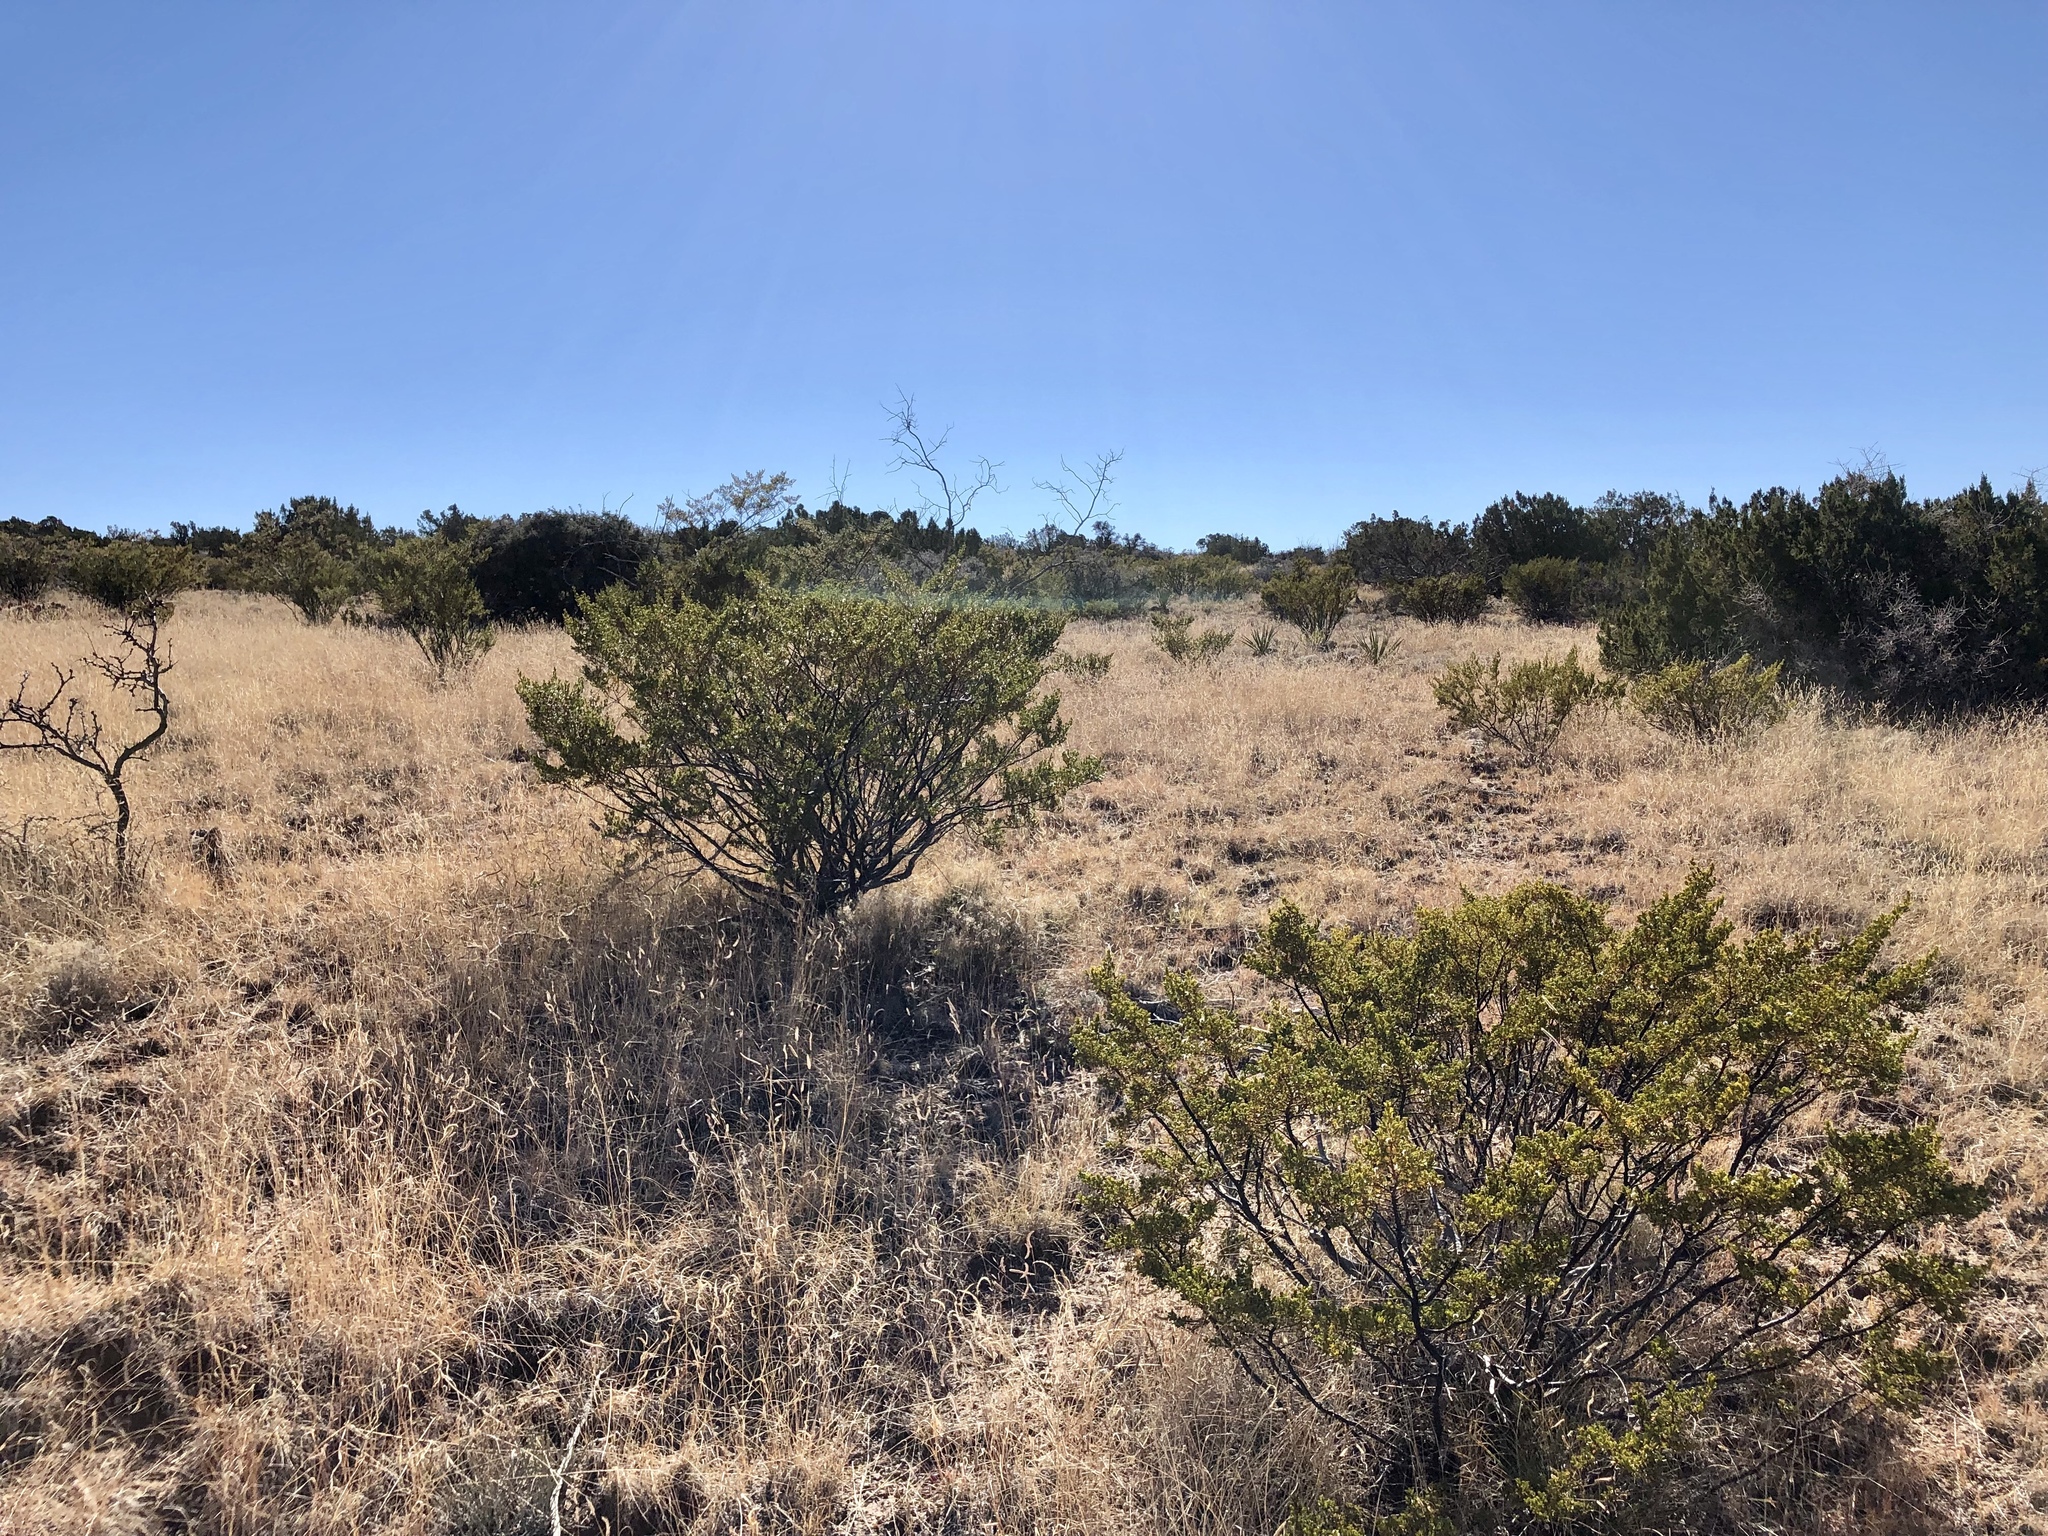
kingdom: Plantae
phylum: Tracheophyta
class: Magnoliopsida
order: Zygophyllales
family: Zygophyllaceae
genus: Larrea
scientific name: Larrea tridentata
